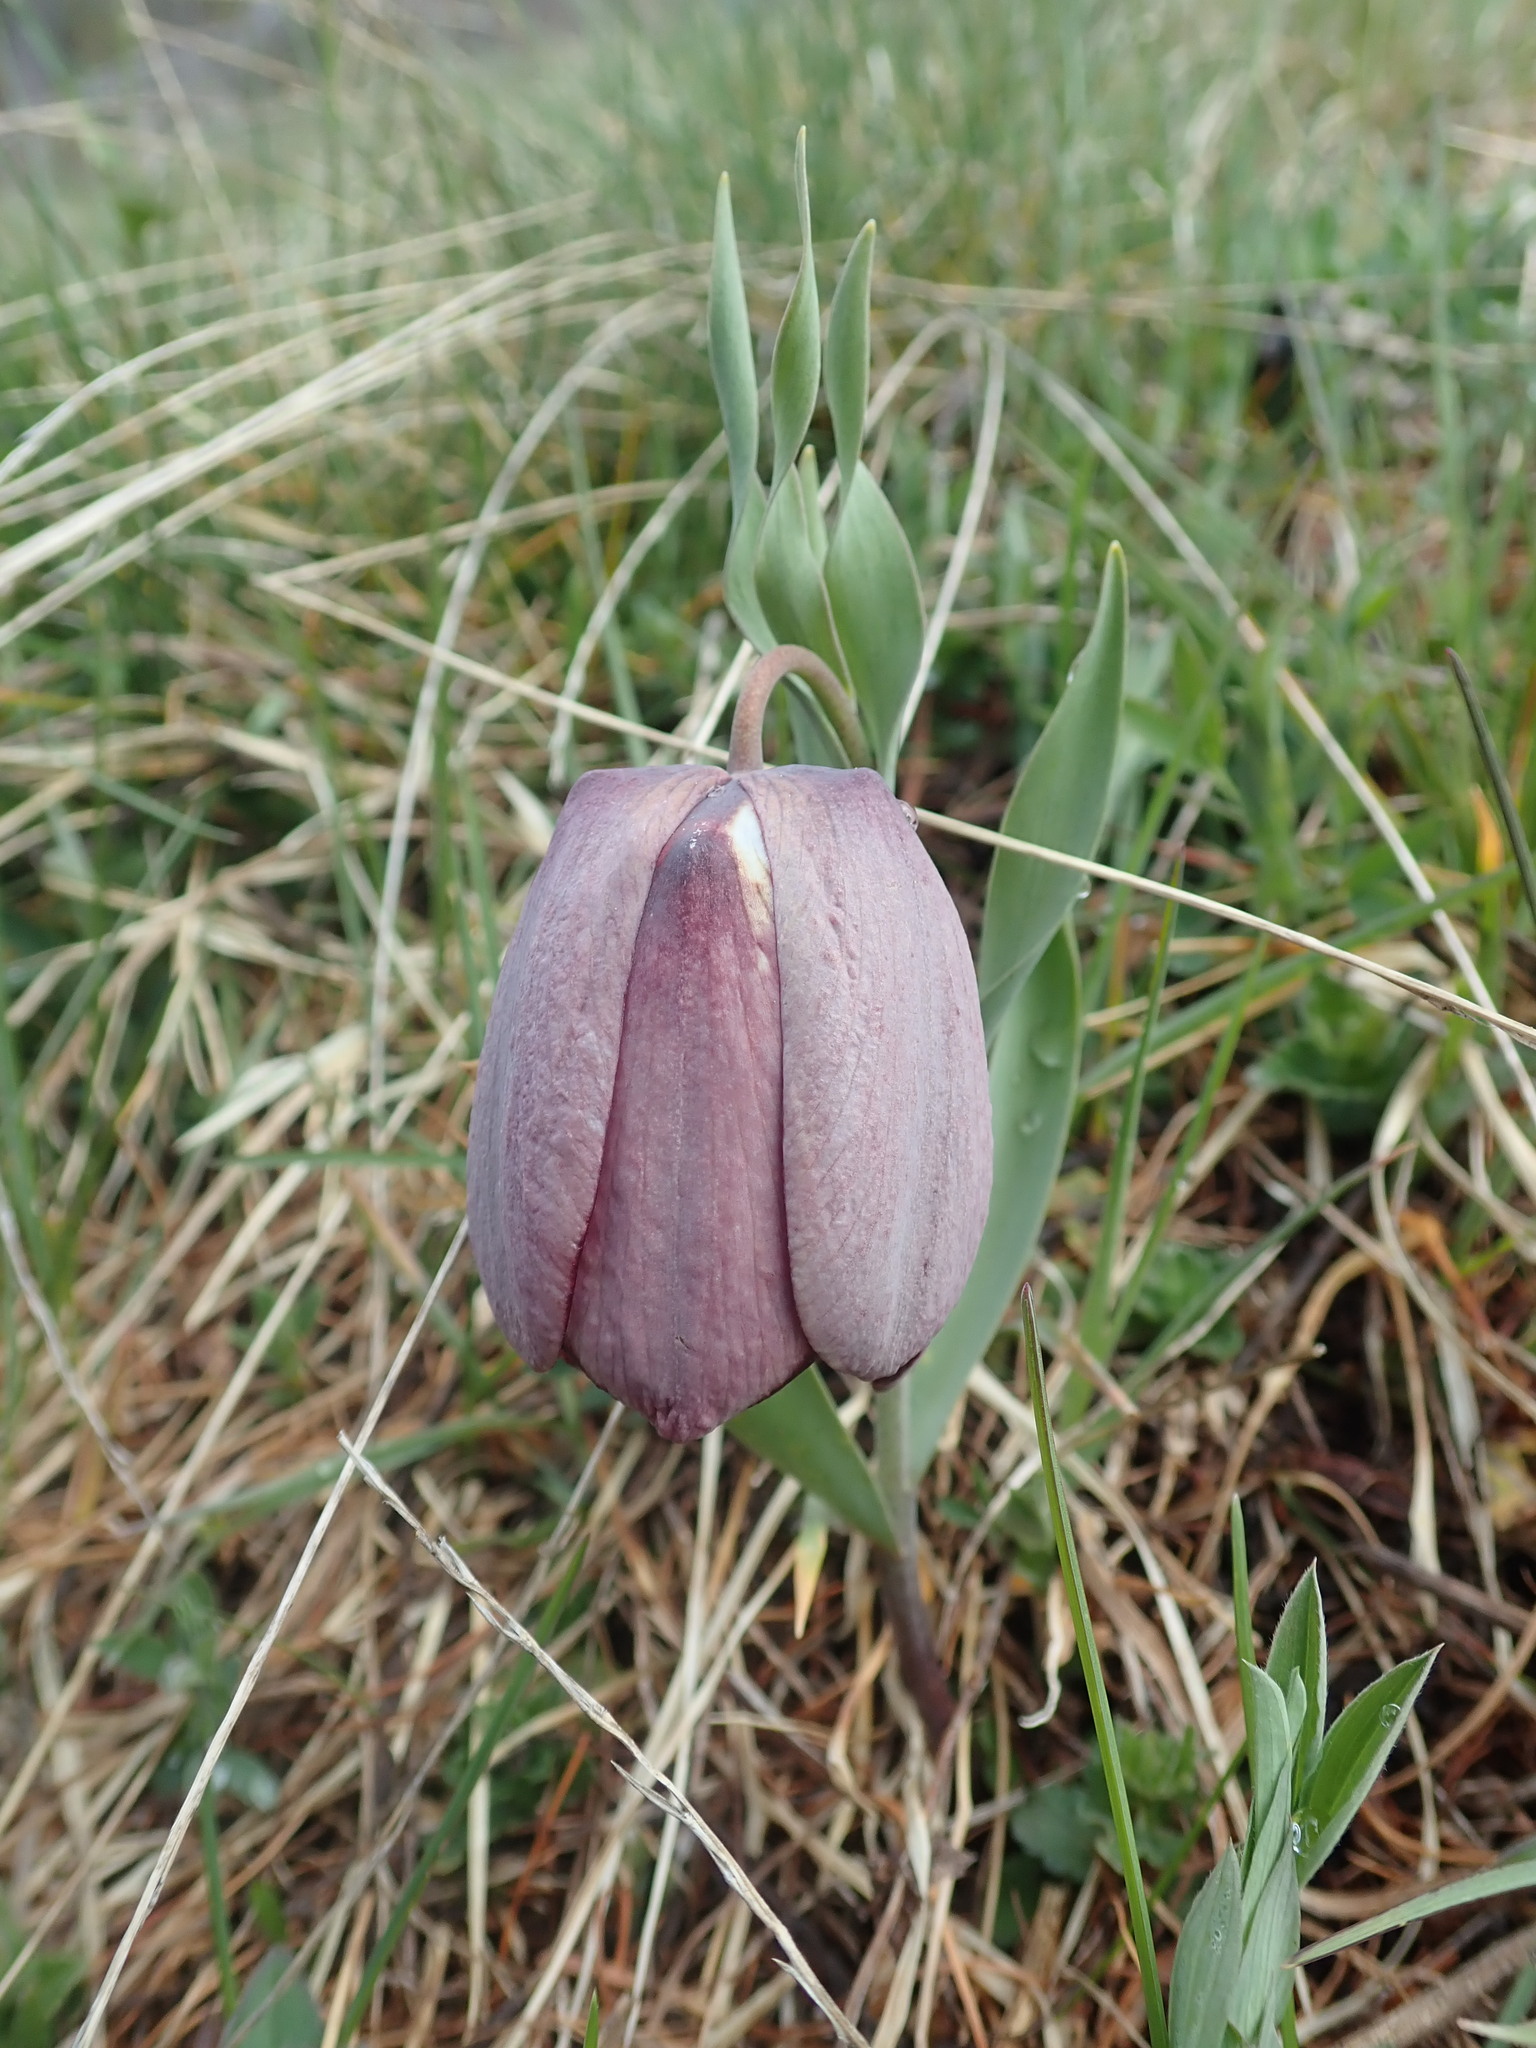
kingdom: Plantae
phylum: Tracheophyta
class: Liliopsida
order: Liliales
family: Liliaceae
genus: Fritillaria
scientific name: Fritillaria tubaeformis
